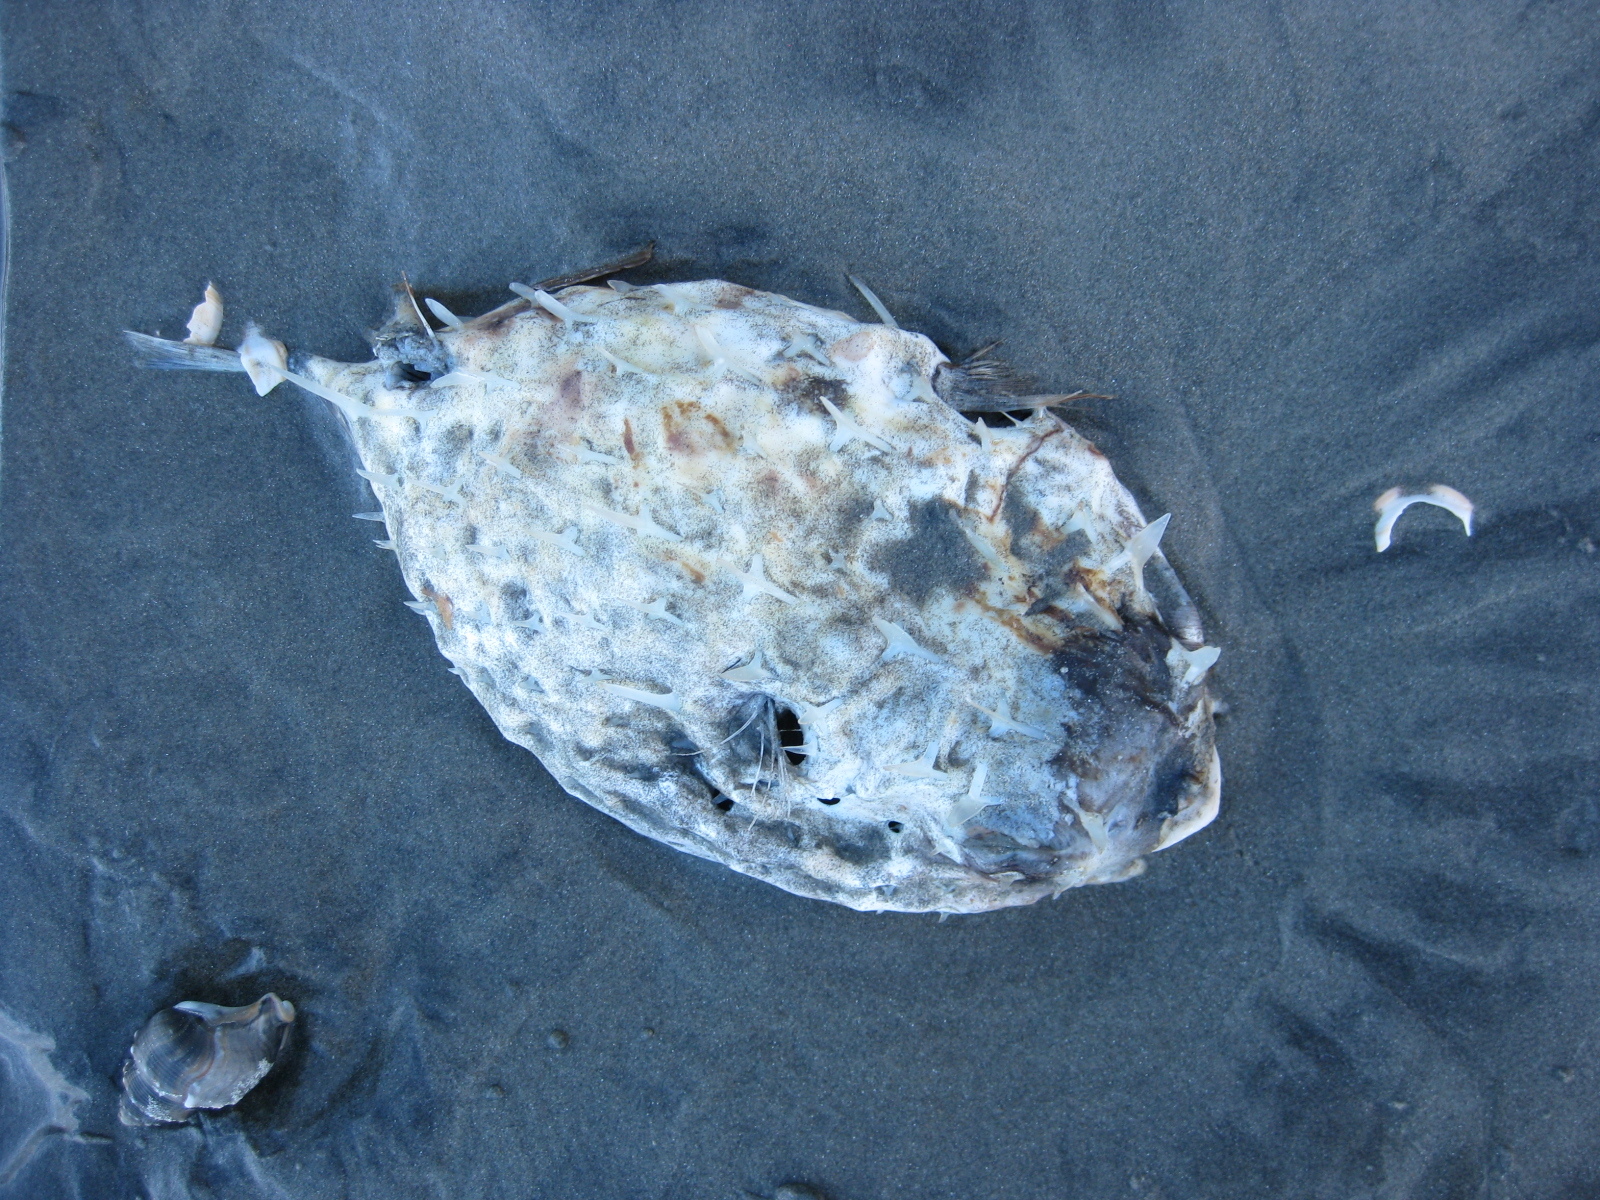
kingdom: Animalia
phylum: Chordata
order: Tetraodontiformes
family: Diodontidae
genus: Allomycterus
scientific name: Allomycterus pilatus
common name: No common name
